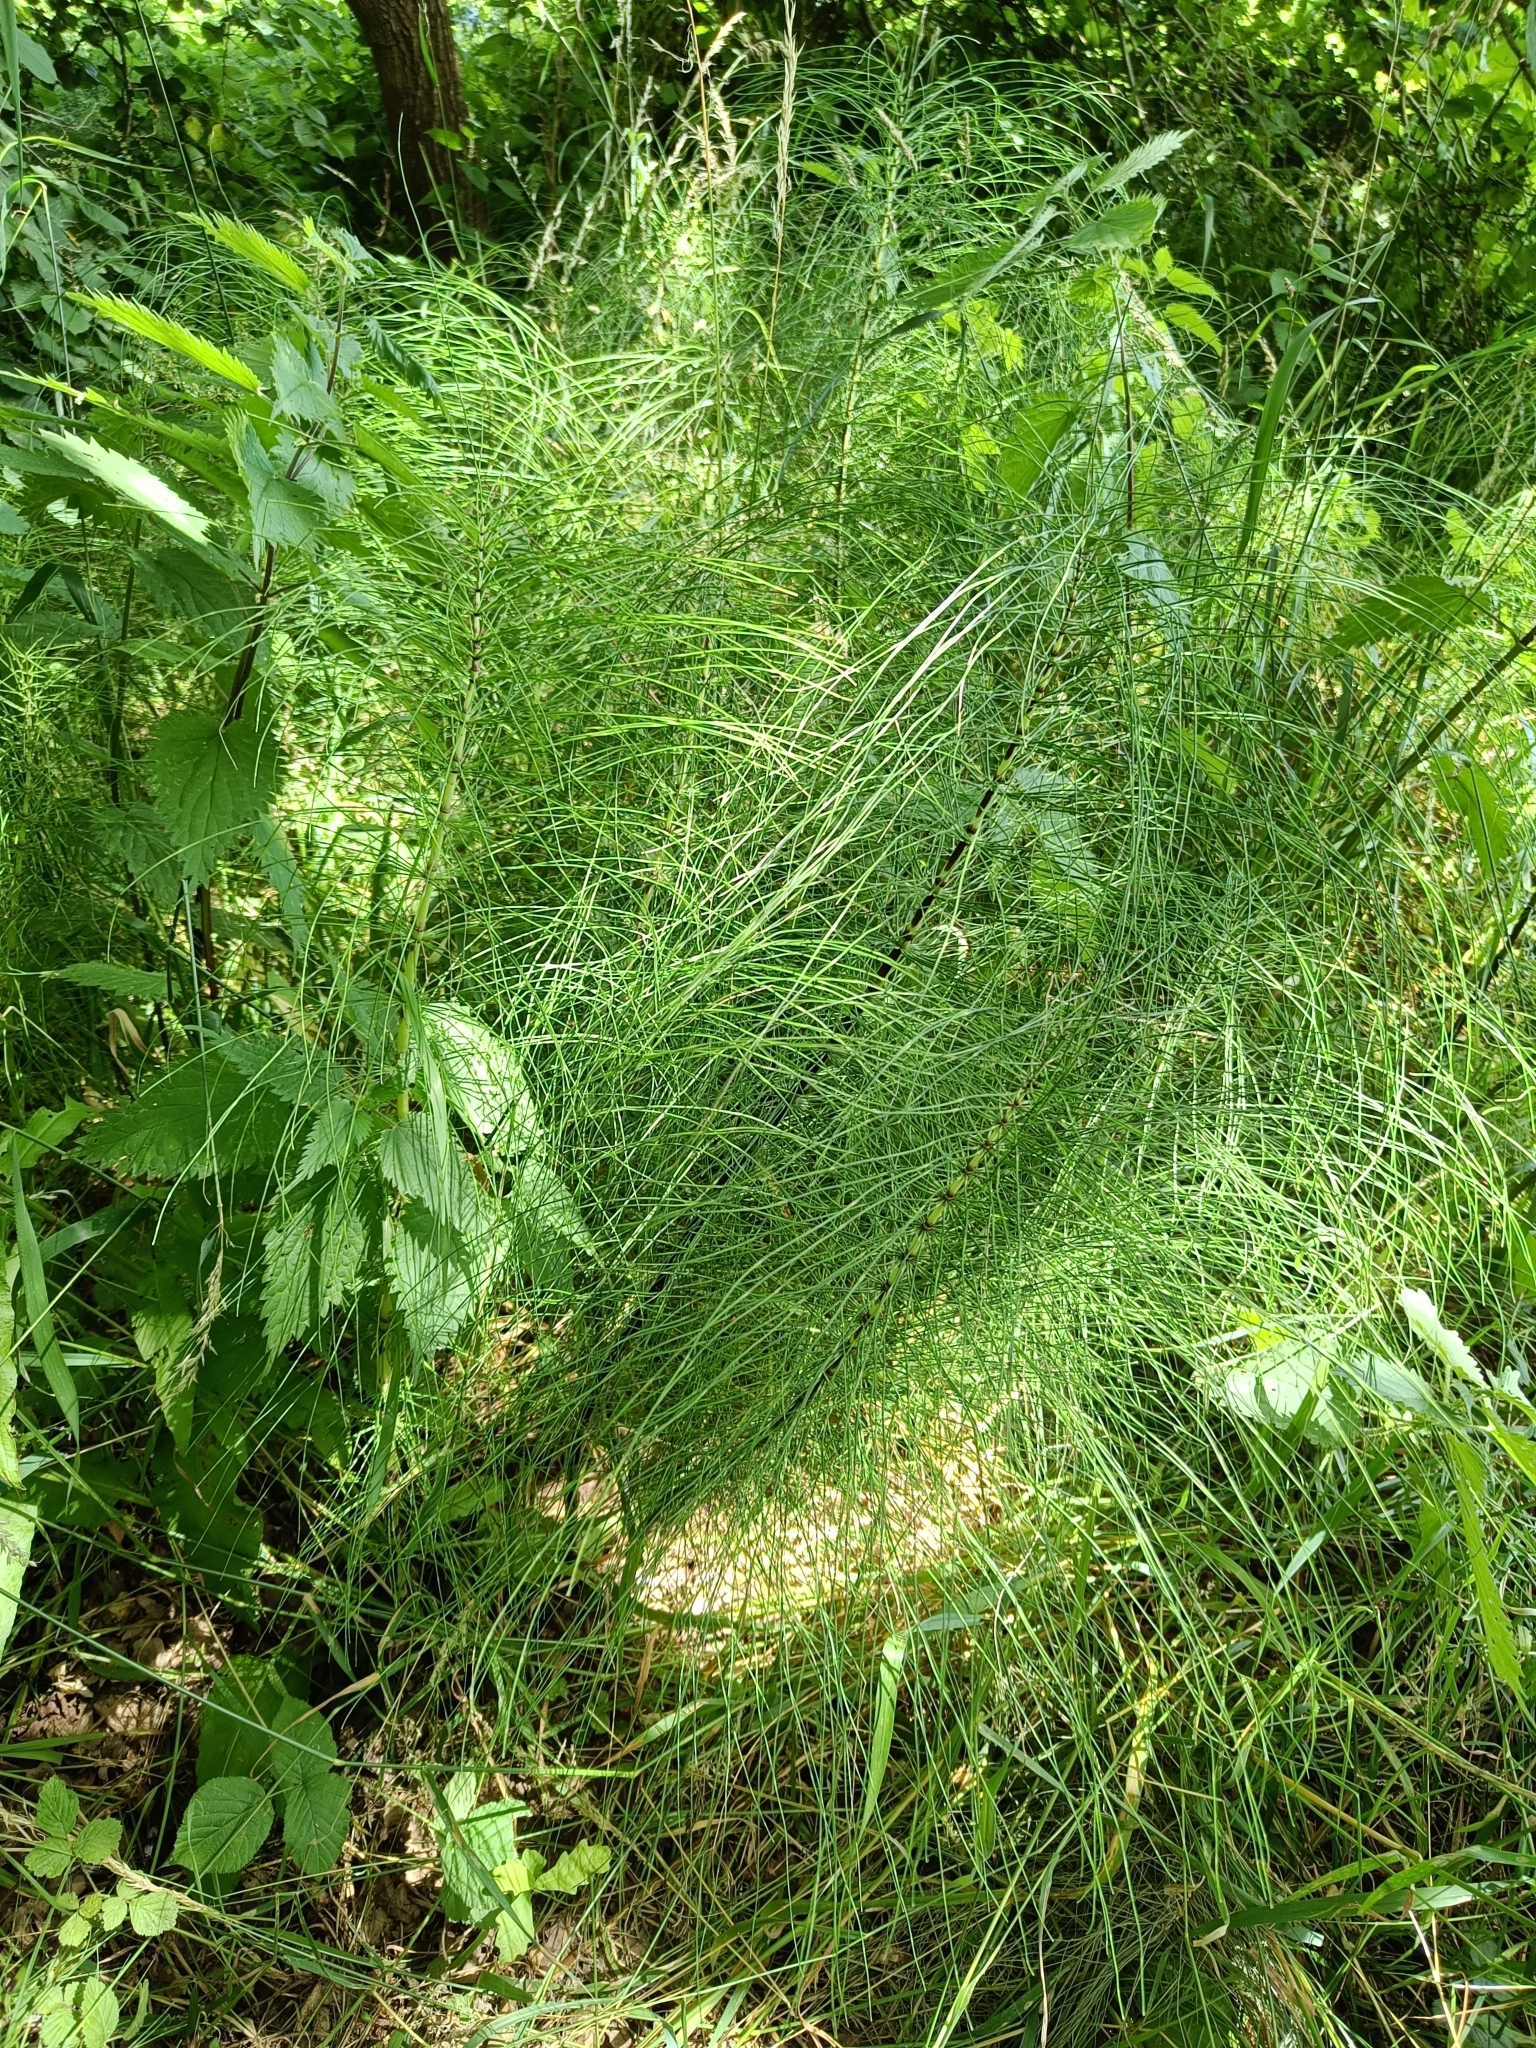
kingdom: Plantae
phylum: Tracheophyta
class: Polypodiopsida
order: Equisetales
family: Equisetaceae
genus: Equisetum
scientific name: Equisetum telmateia
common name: Great horsetail
